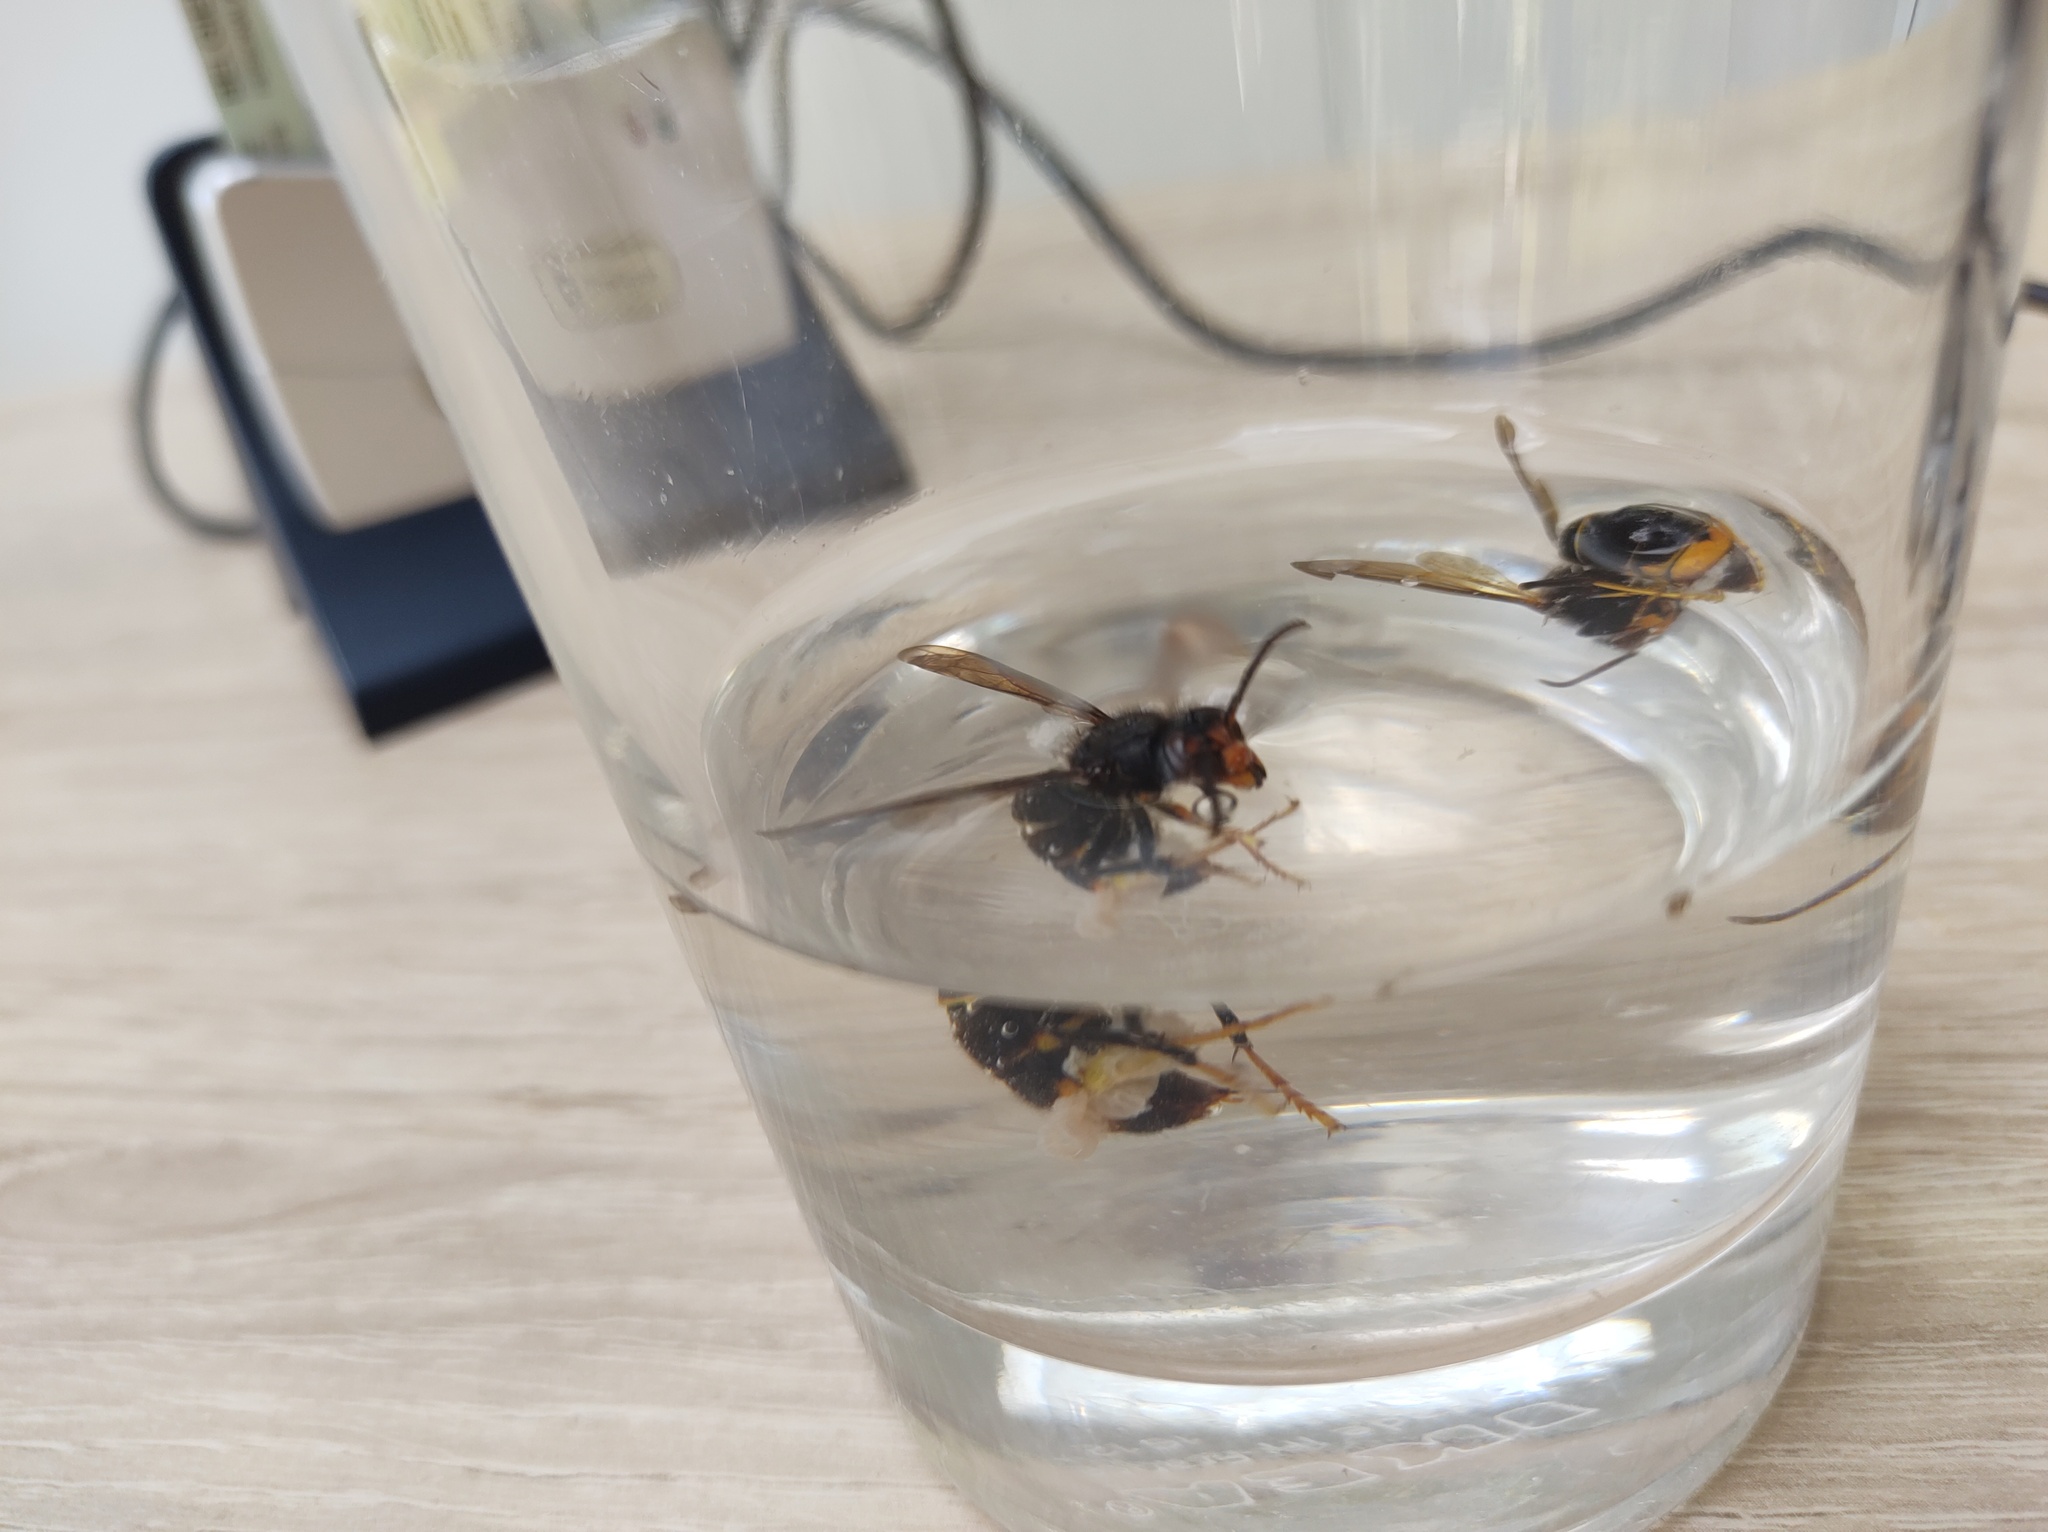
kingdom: Animalia
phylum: Arthropoda
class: Insecta
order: Hymenoptera
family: Vespidae
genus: Vespa
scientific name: Vespa velutina
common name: Asian hornet
